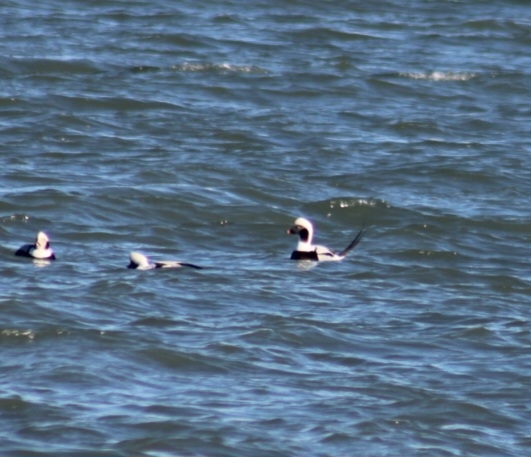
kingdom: Animalia
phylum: Chordata
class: Aves
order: Anseriformes
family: Anatidae
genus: Clangula
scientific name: Clangula hyemalis
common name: Long-tailed duck
